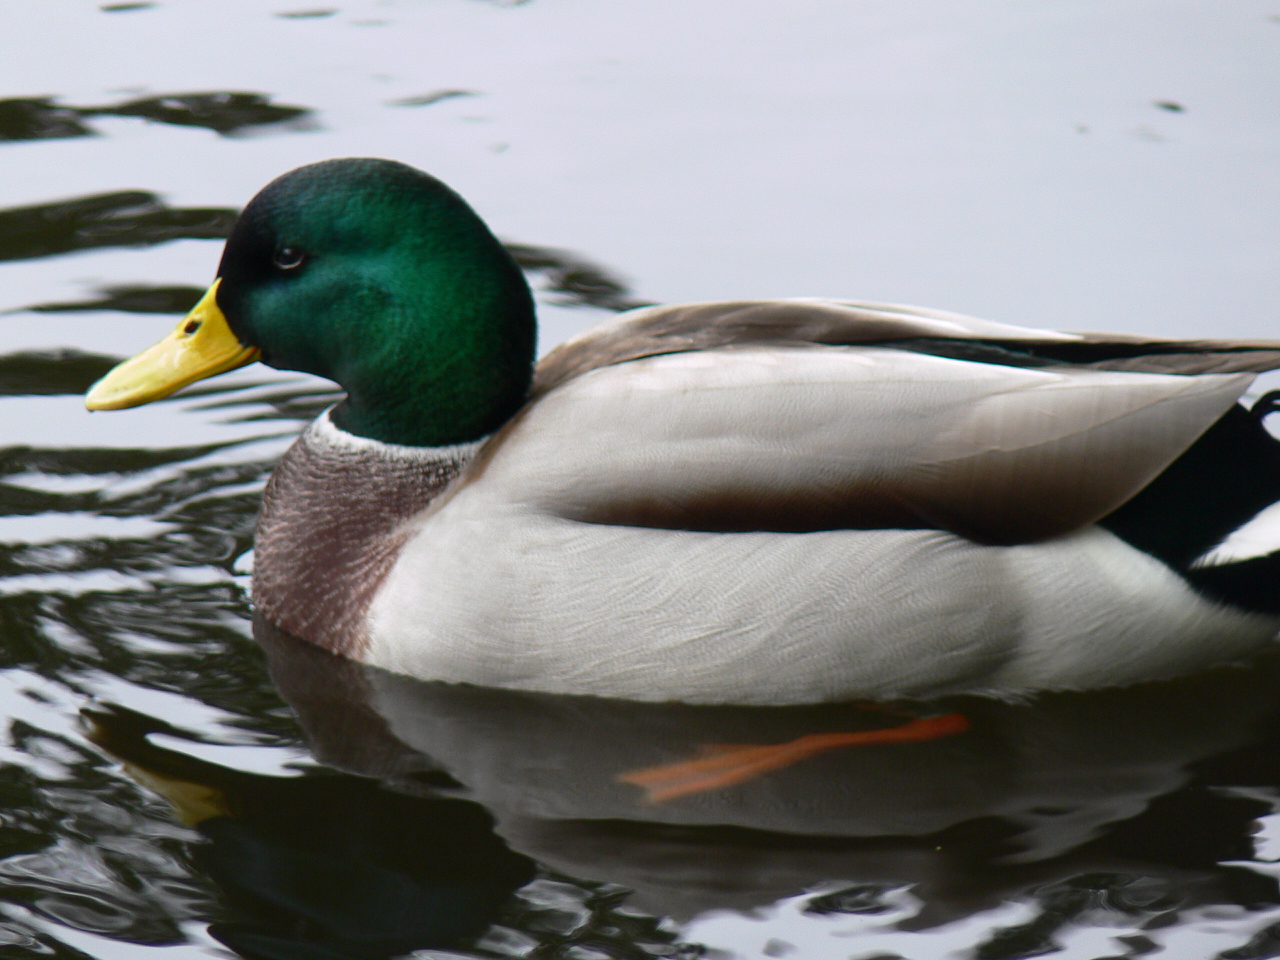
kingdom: Animalia
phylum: Chordata
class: Aves
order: Anseriformes
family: Anatidae
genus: Anas
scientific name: Anas platyrhynchos
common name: Mallard
